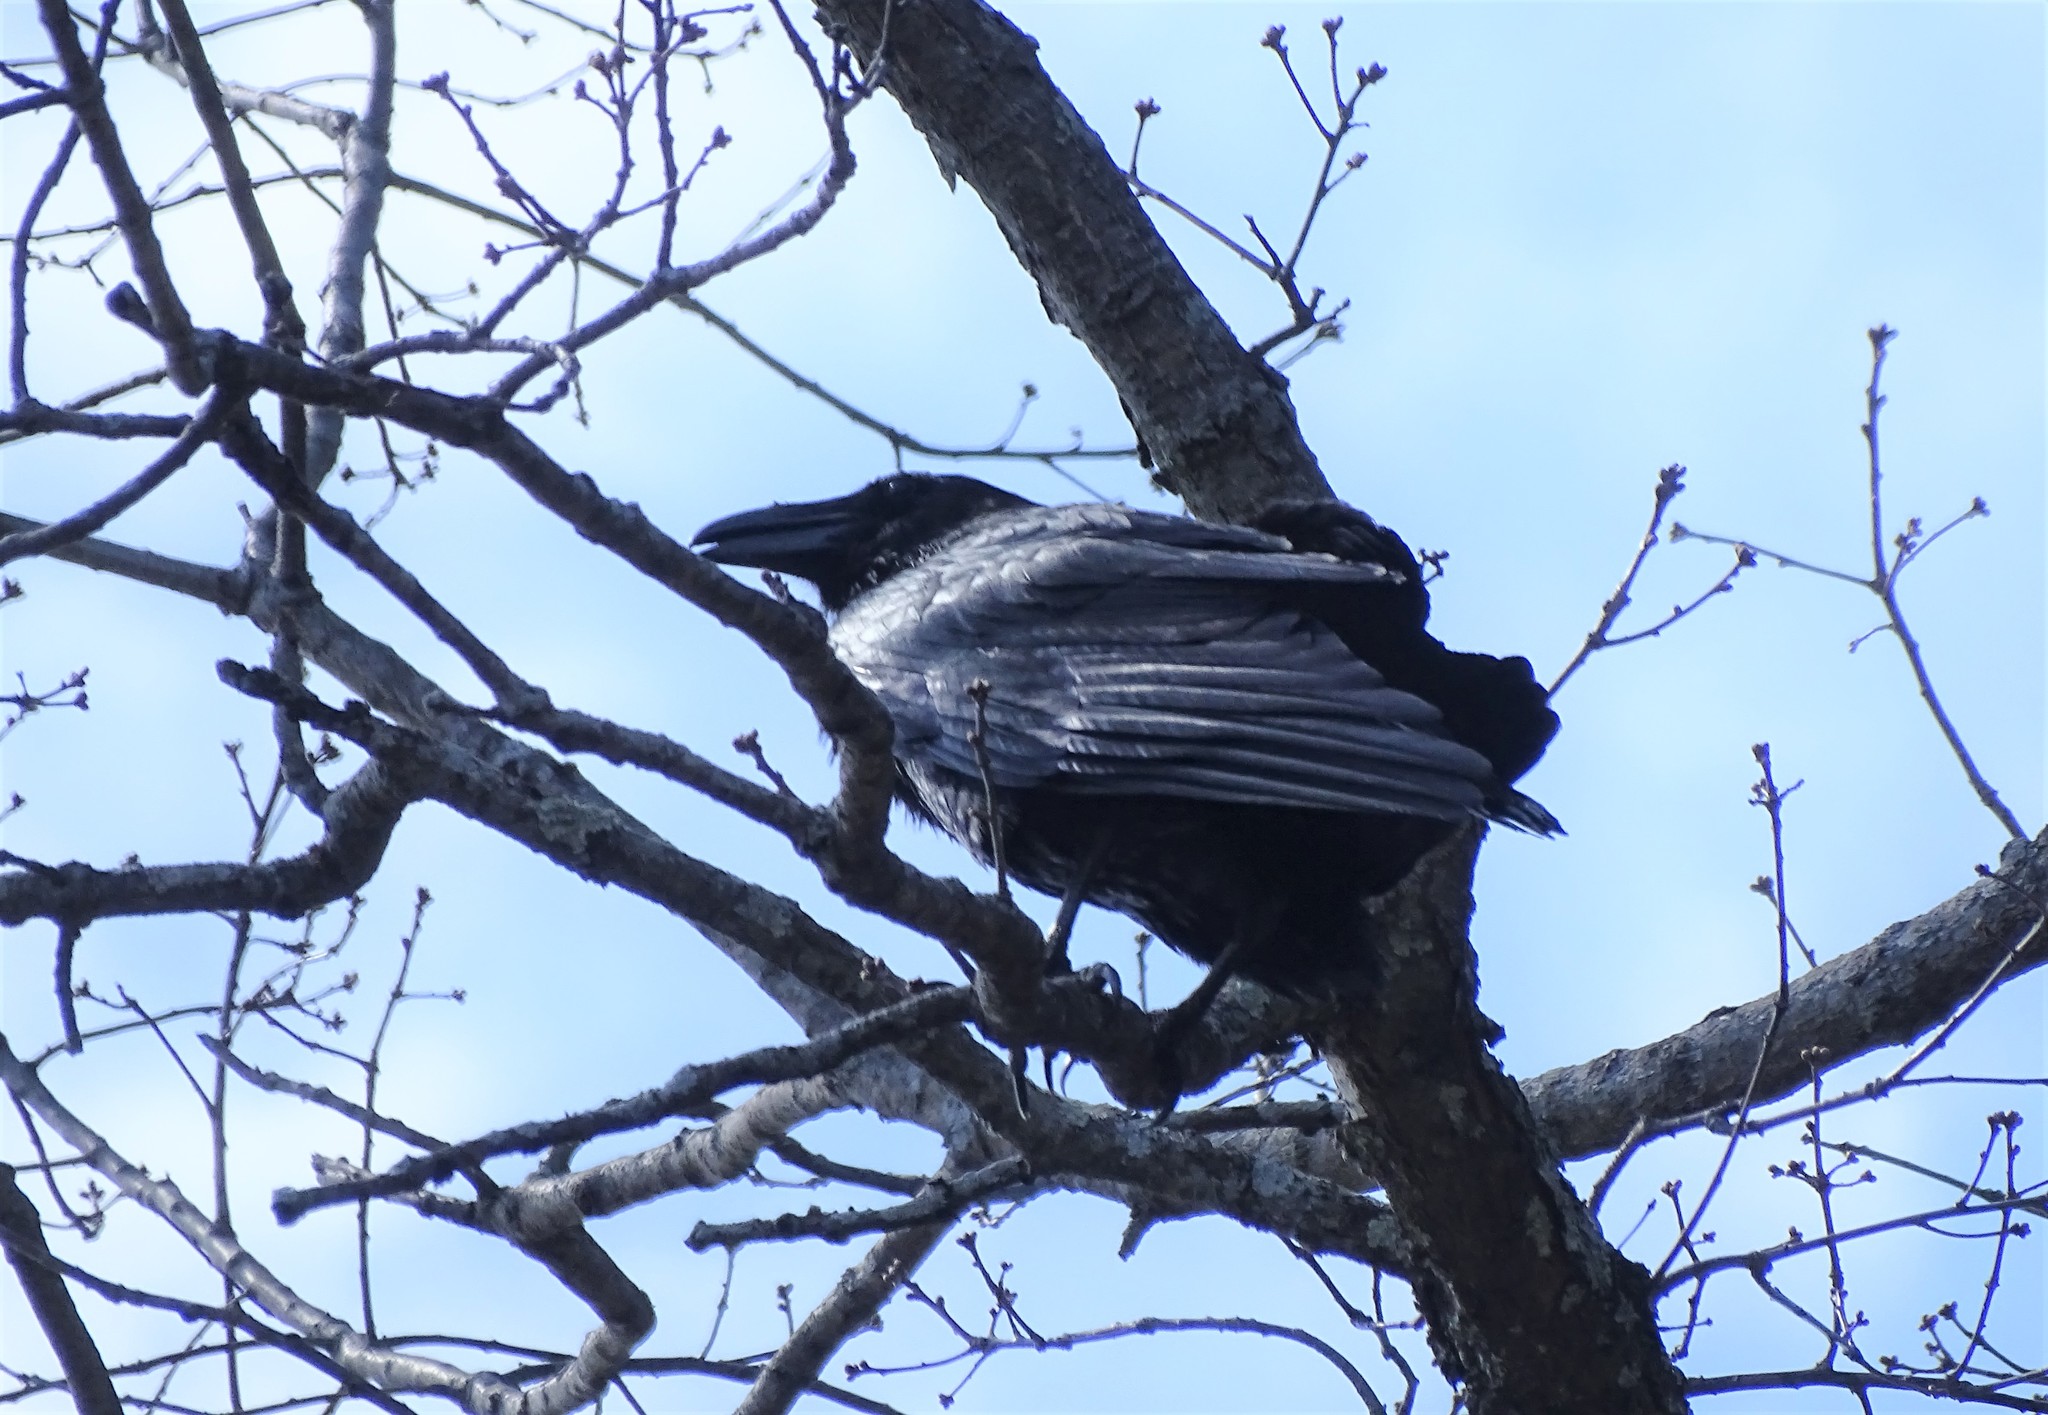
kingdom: Animalia
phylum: Chordata
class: Aves
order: Passeriformes
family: Corvidae
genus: Corvus
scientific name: Corvus corax
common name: Common raven
